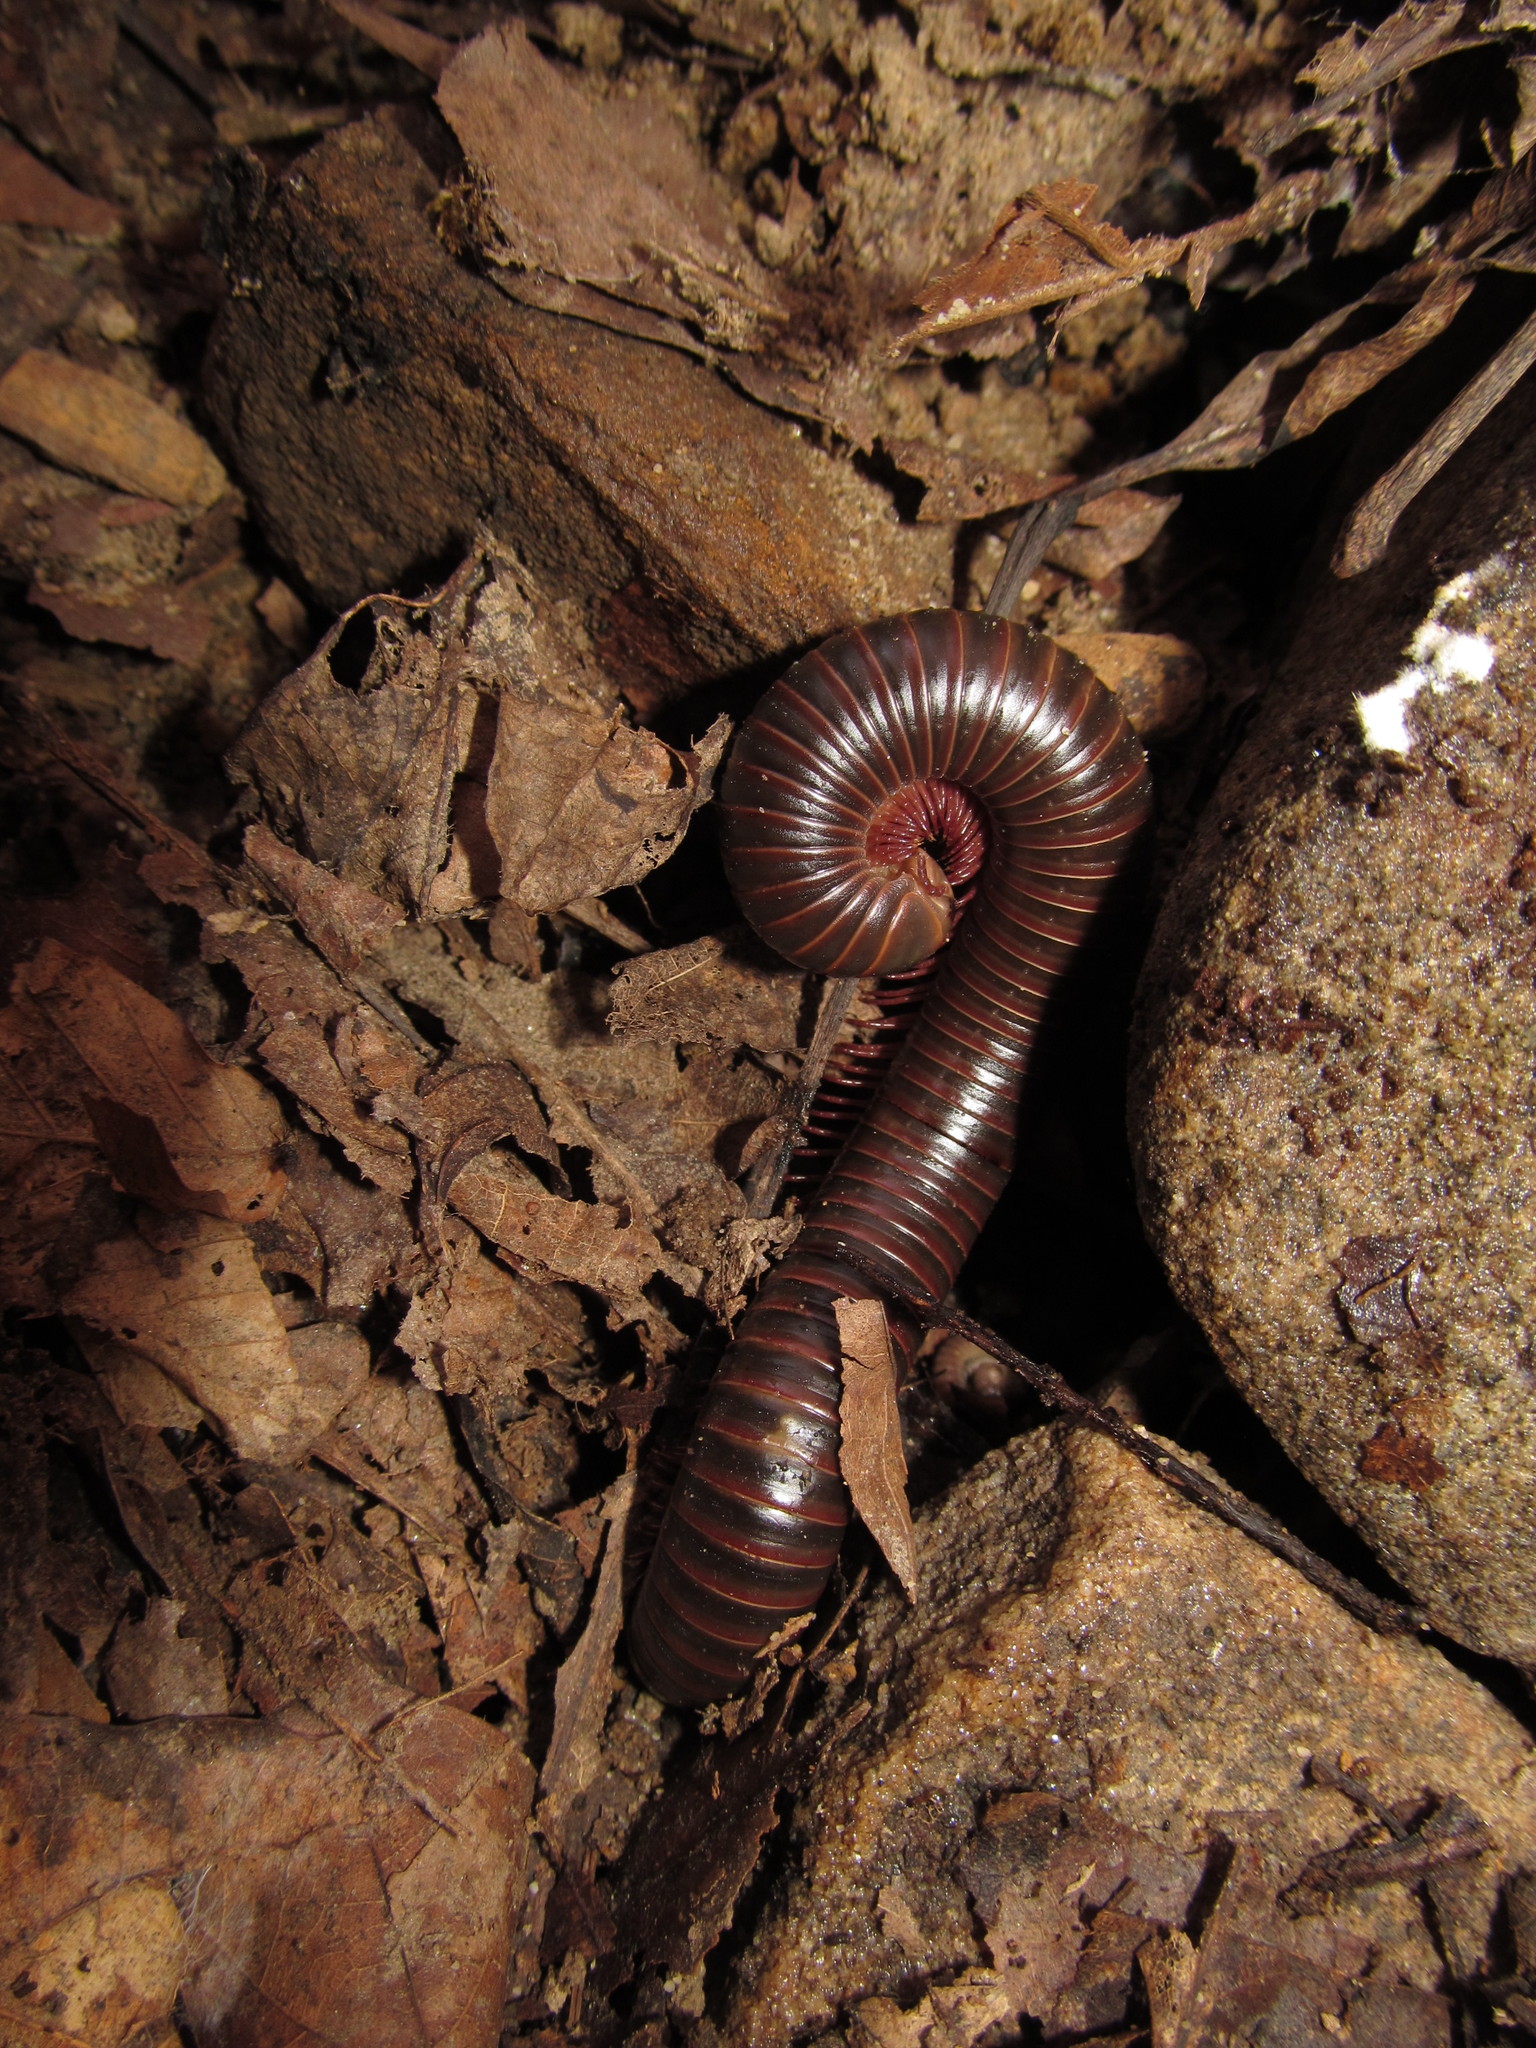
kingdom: Animalia
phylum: Arthropoda
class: Diplopoda
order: Spirobolida
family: Spirobolidae
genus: Narceus
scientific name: Narceus
